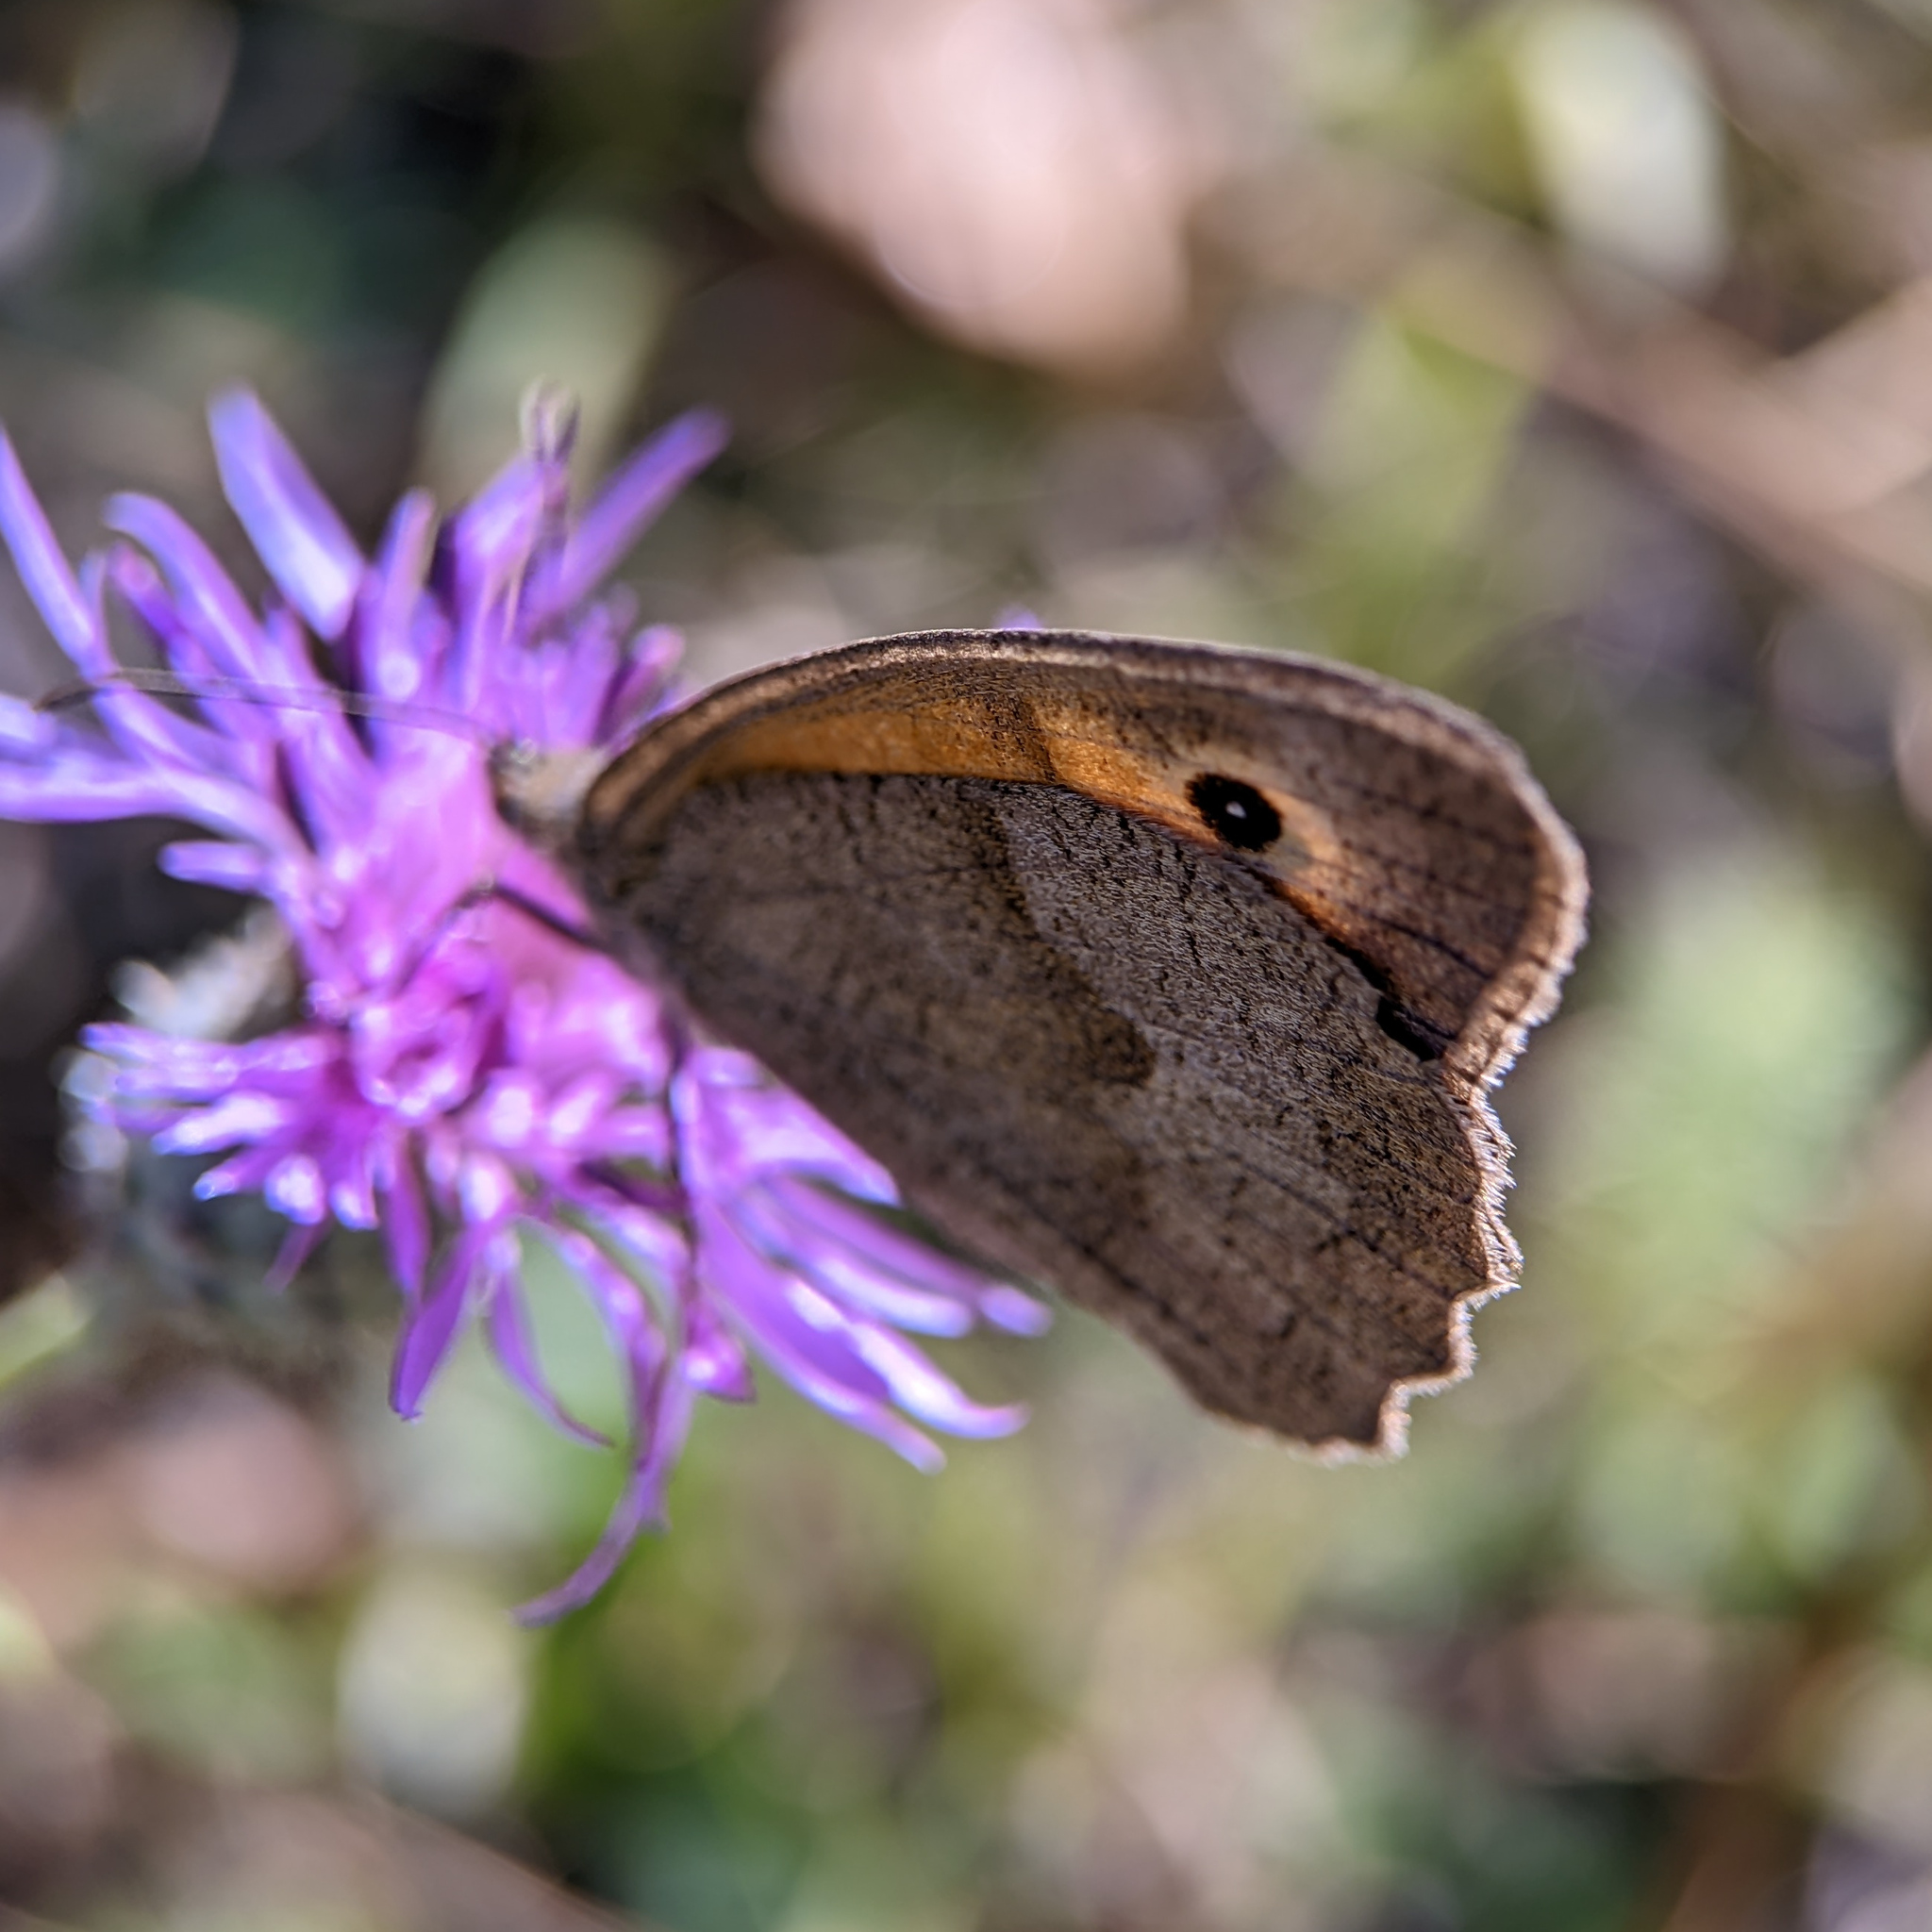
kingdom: Animalia
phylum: Arthropoda
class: Insecta
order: Lepidoptera
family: Nymphalidae
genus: Maniola
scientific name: Maniola jurtina
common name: Meadow brown
